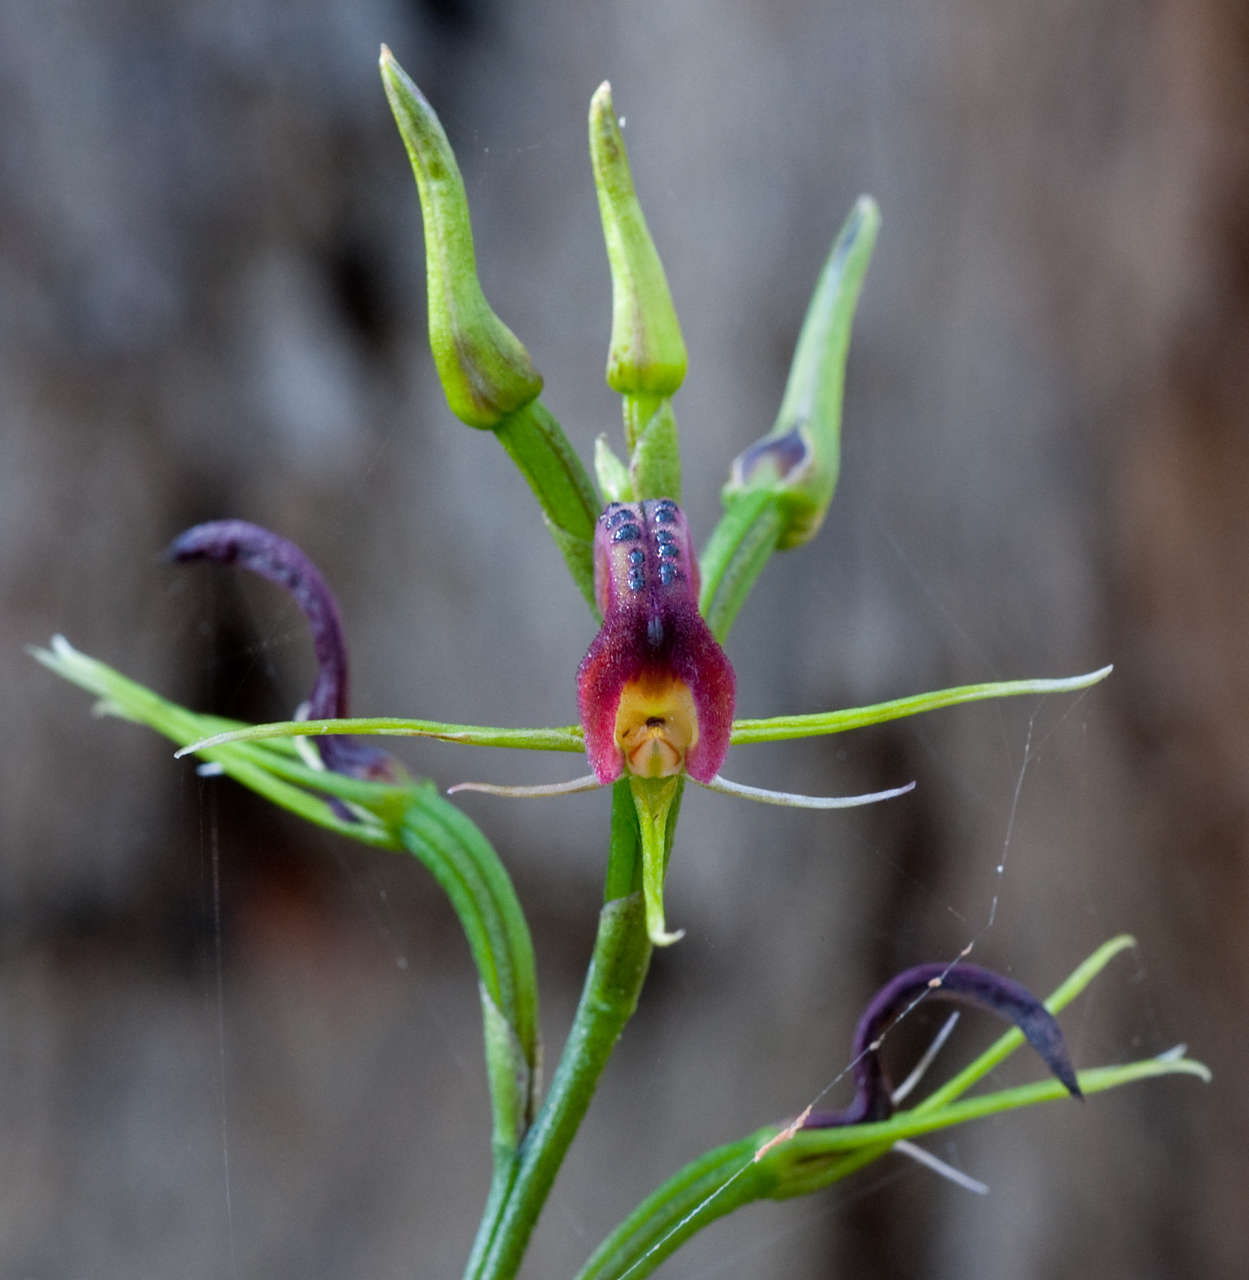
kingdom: Plantae
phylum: Tracheophyta
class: Liliopsida
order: Asparagales
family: Orchidaceae
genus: Cryptostylis
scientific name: Cryptostylis leptochila
